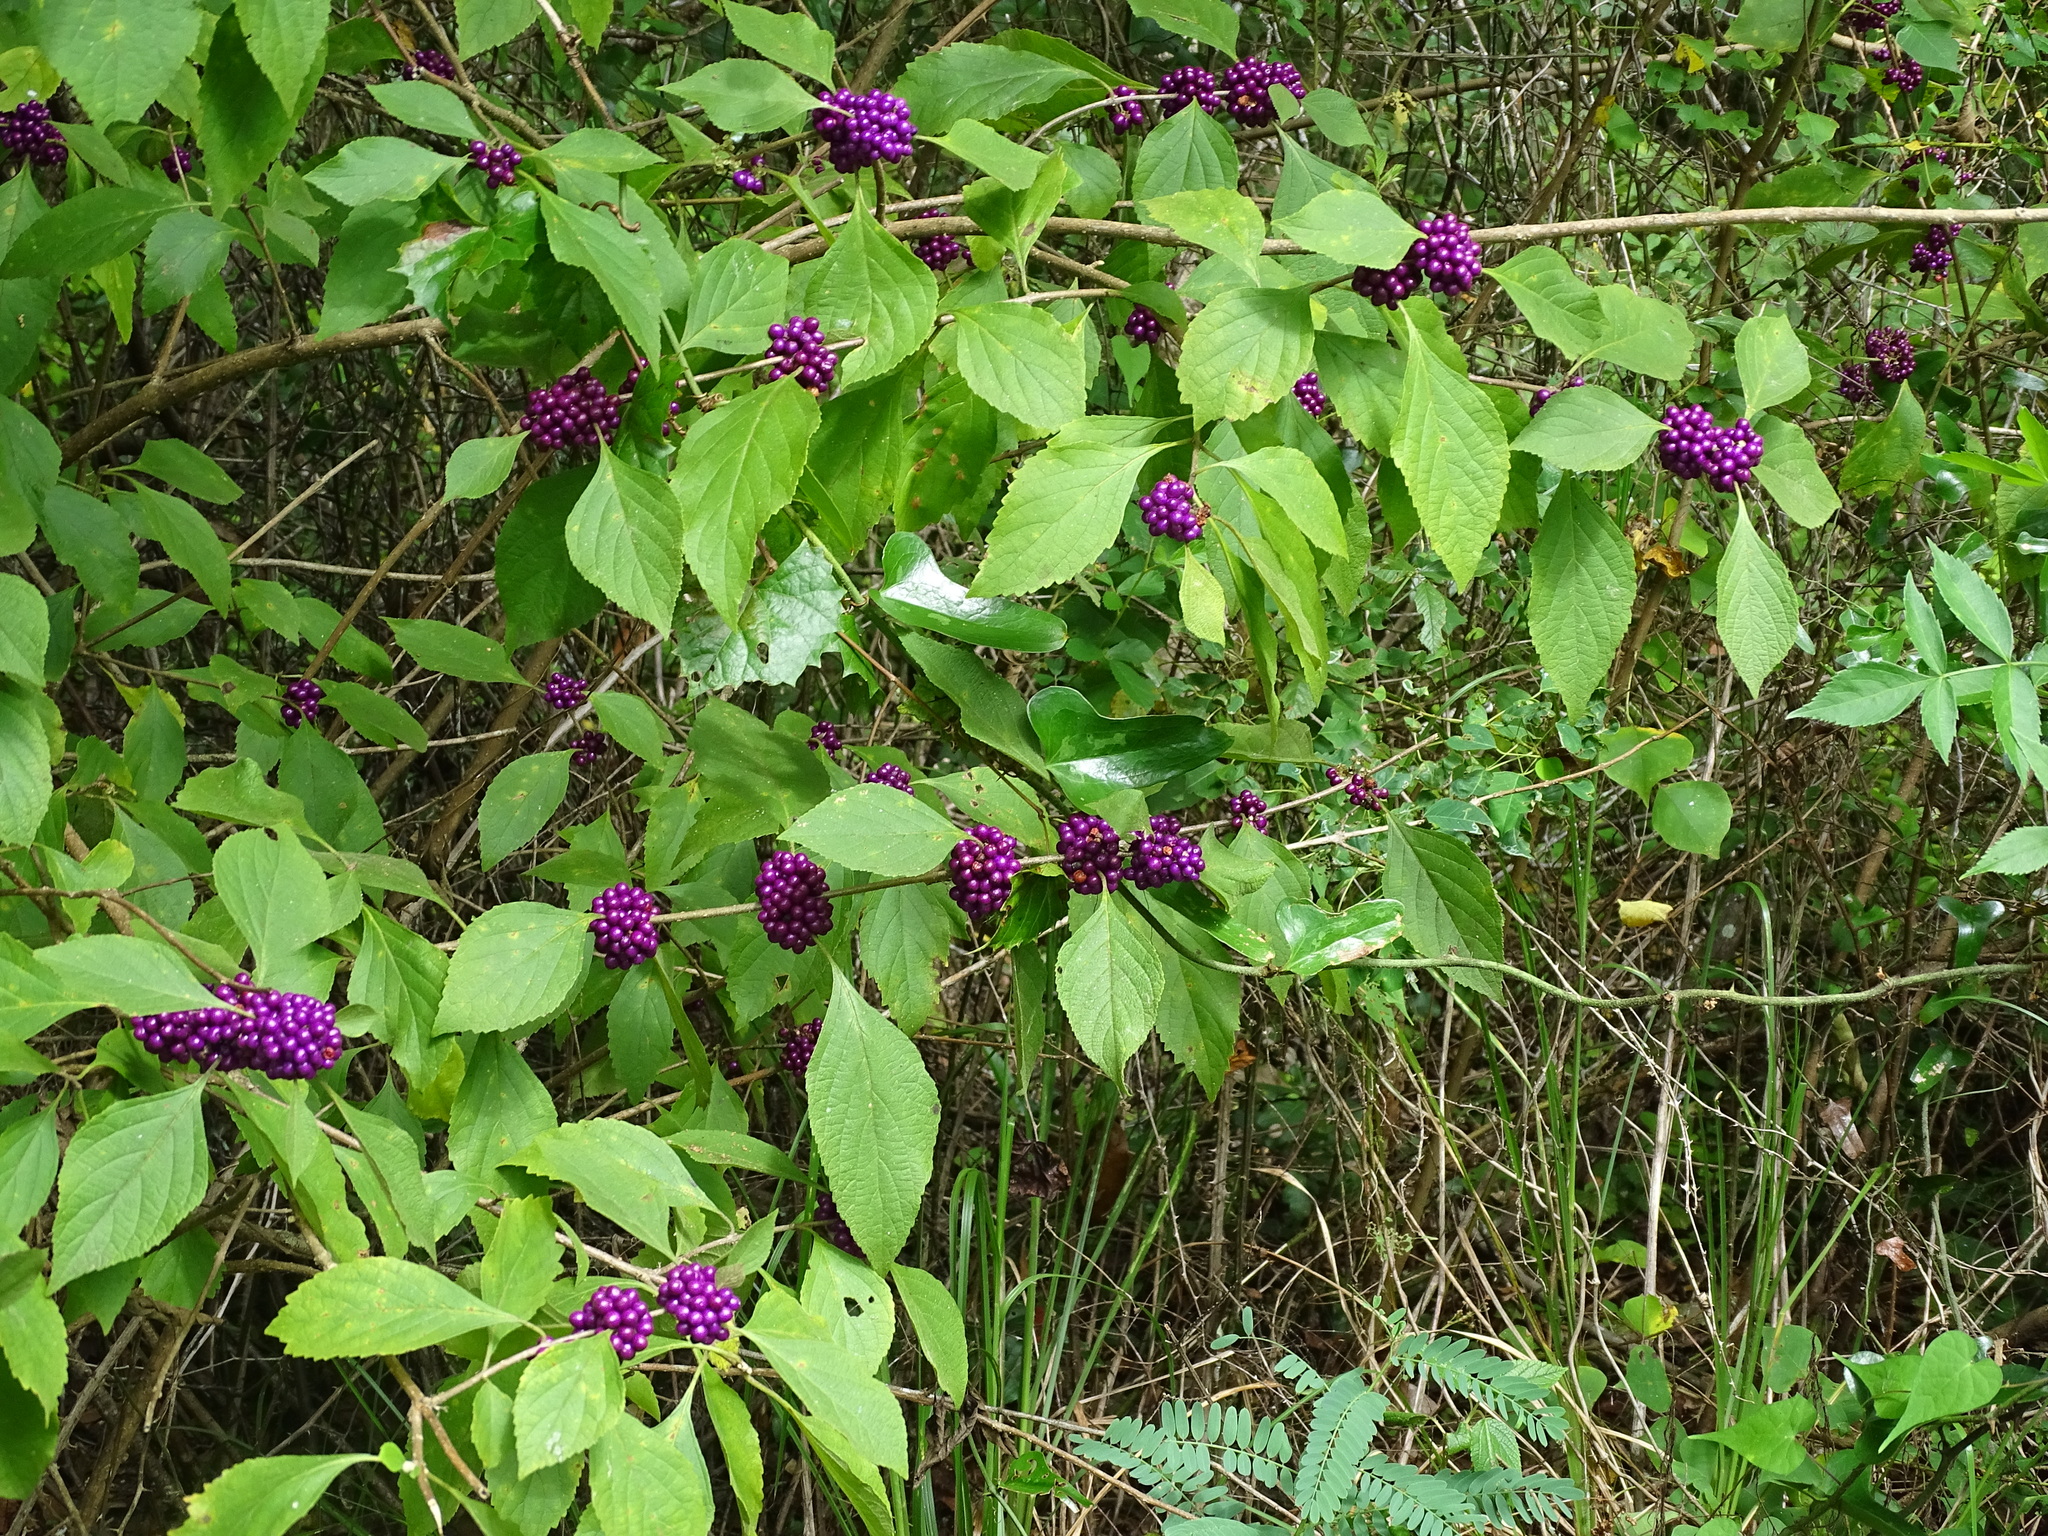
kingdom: Plantae
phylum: Tracheophyta
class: Magnoliopsida
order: Lamiales
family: Lamiaceae
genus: Callicarpa
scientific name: Callicarpa americana
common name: American beautyberry
